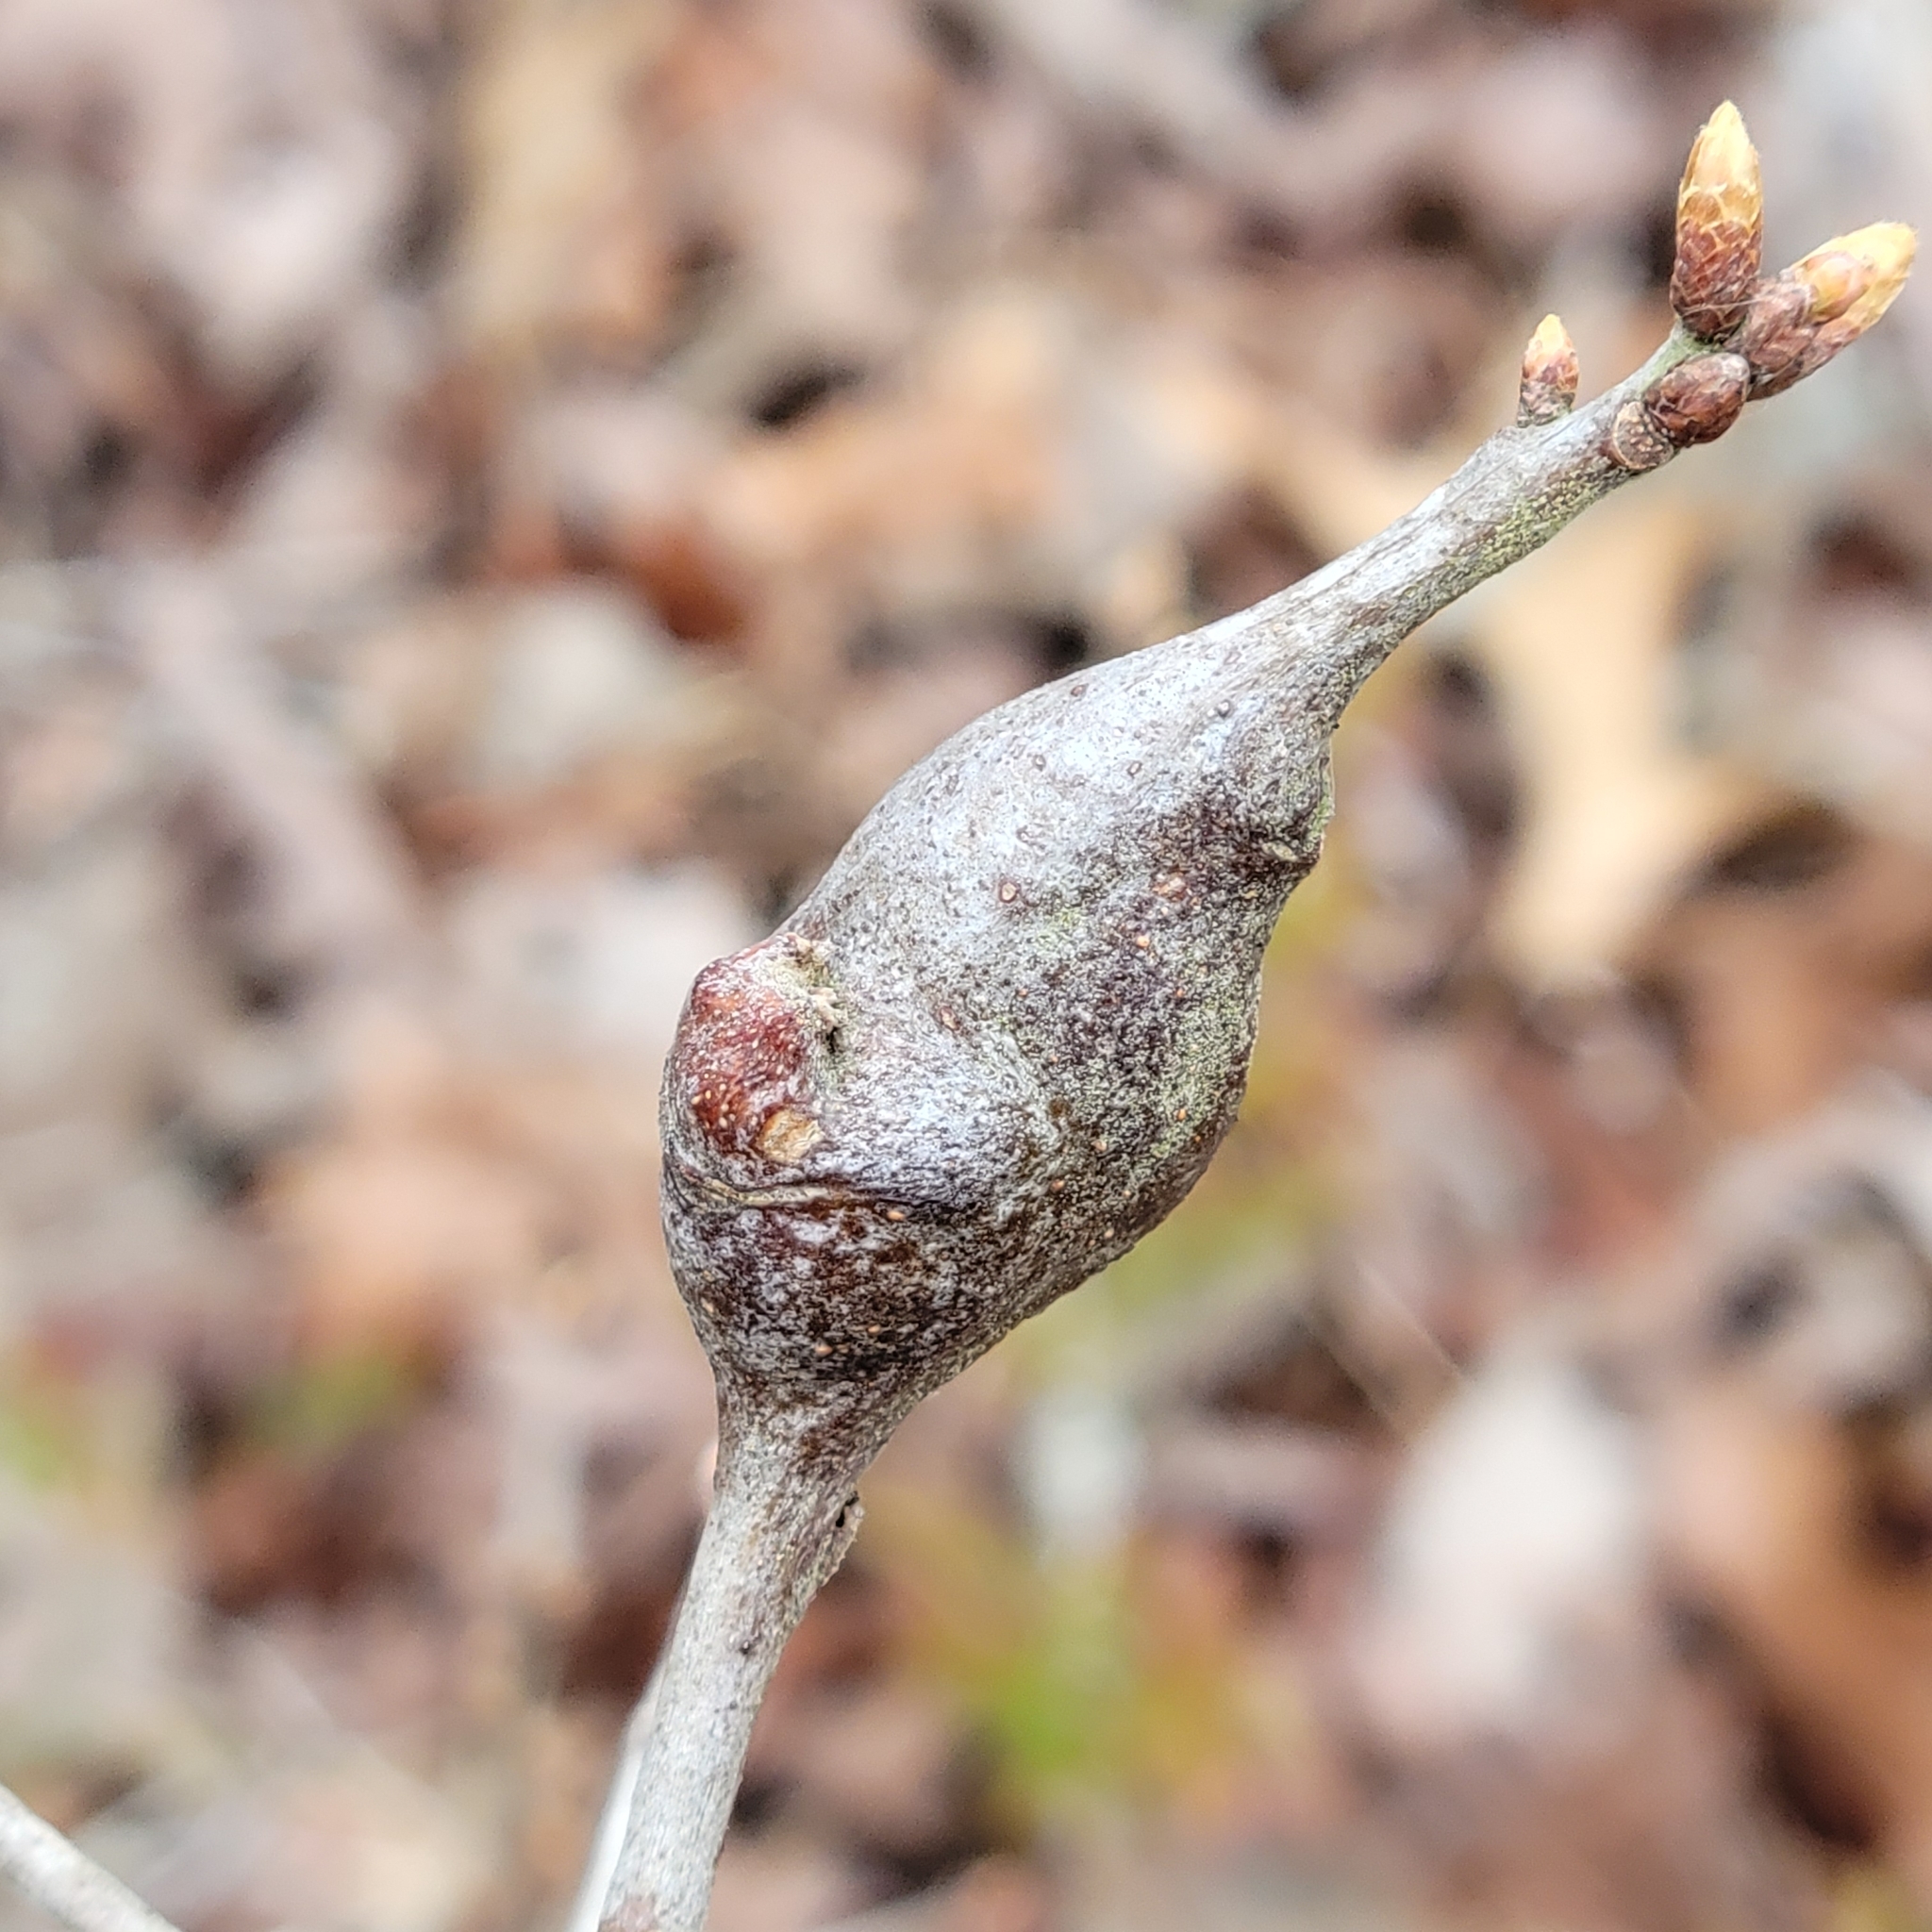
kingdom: Animalia
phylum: Arthropoda
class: Insecta
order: Hymenoptera
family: Cynipidae
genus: Zapatella
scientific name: Zapatella quercusphellos
